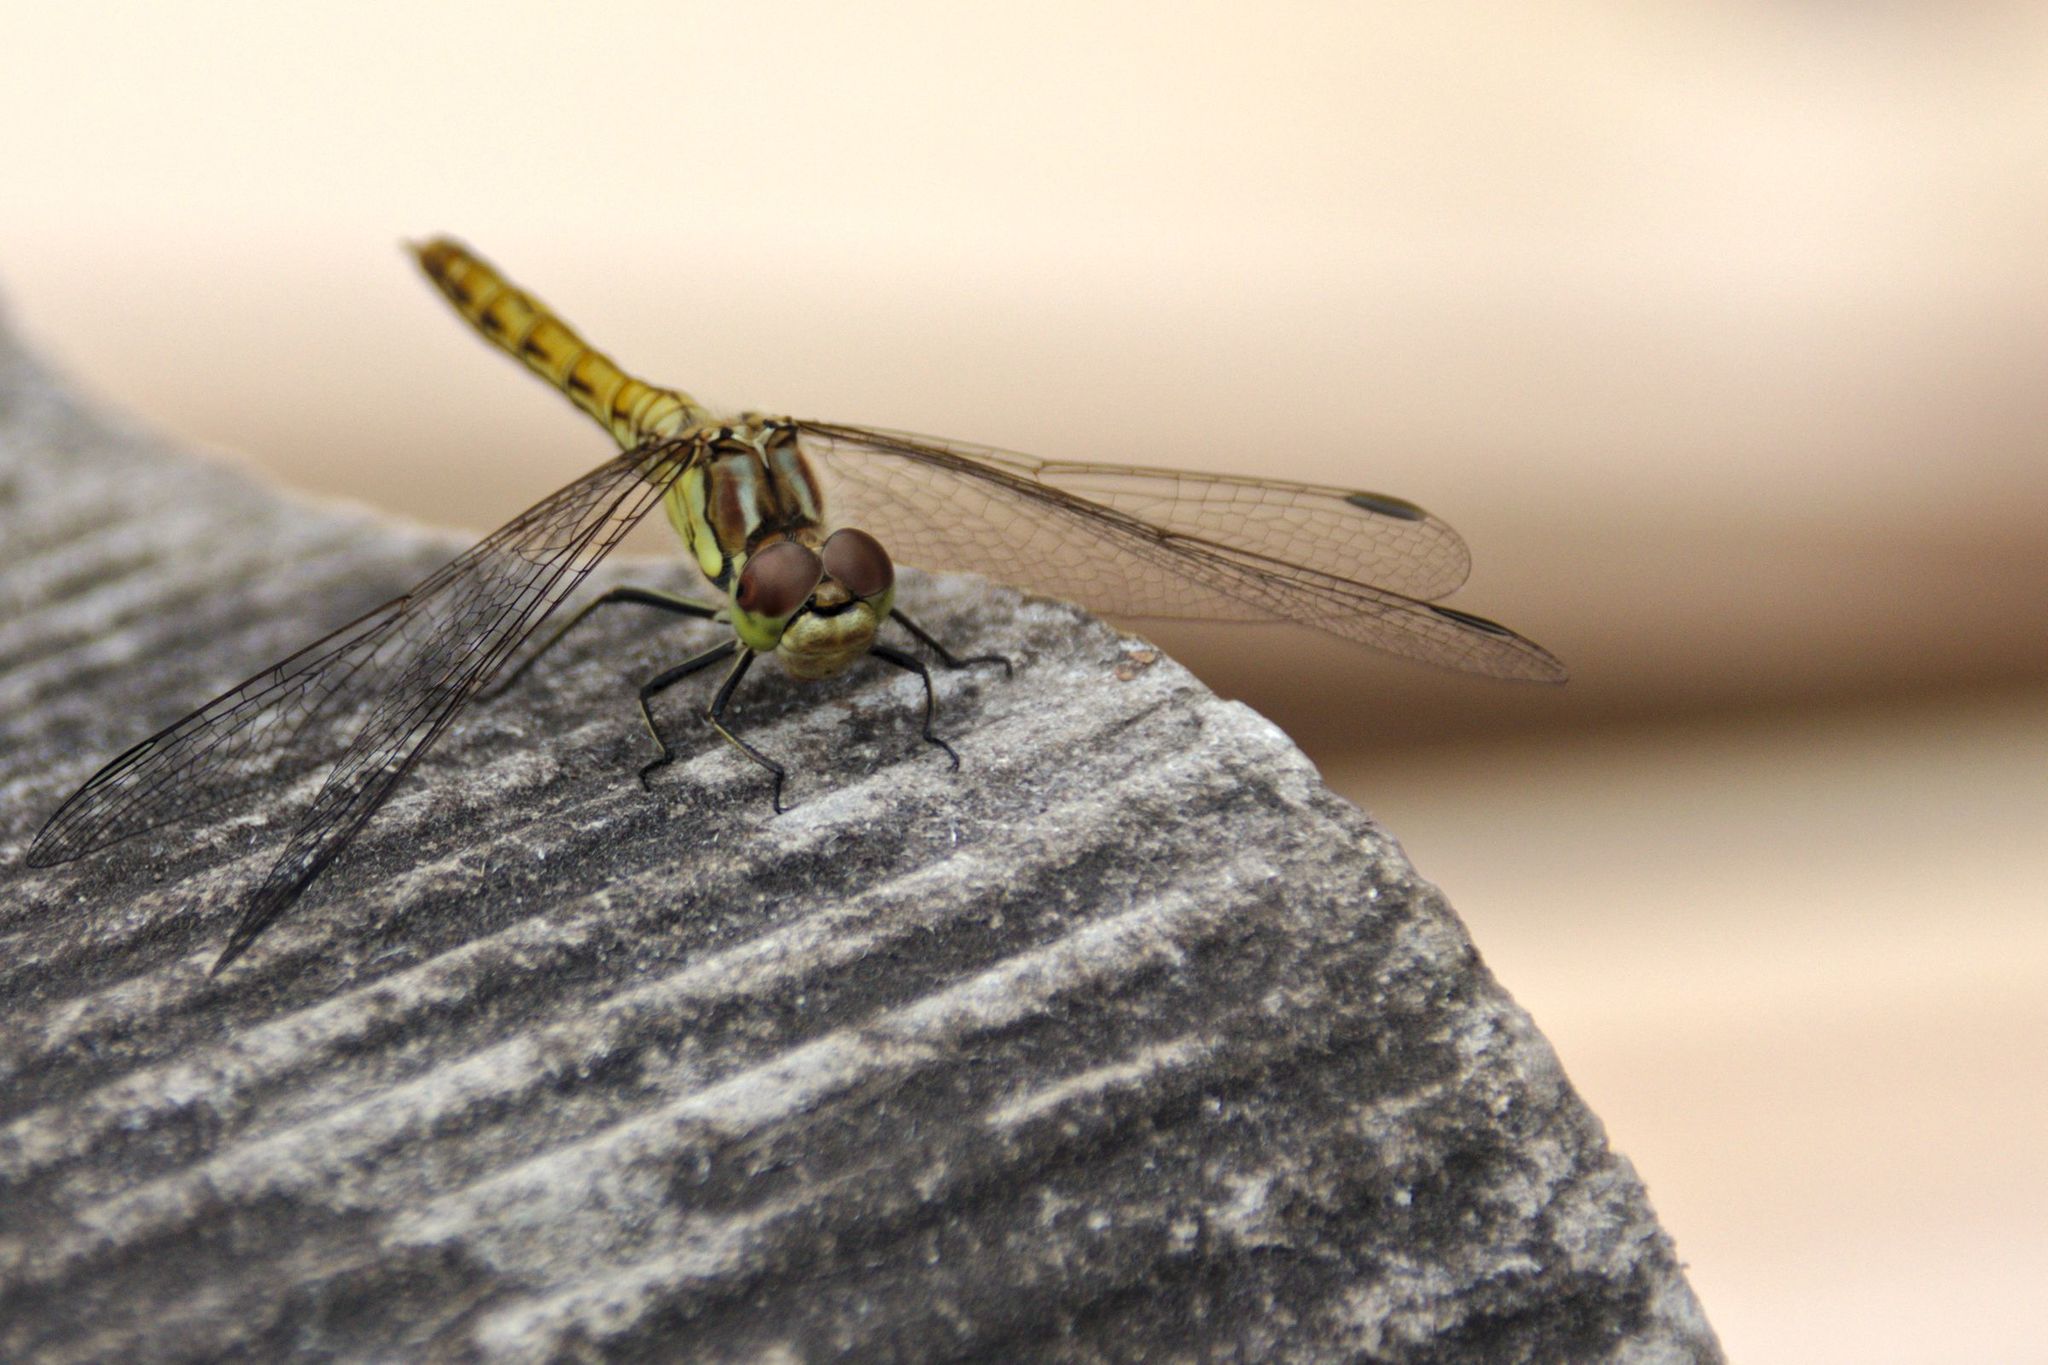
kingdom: Animalia
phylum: Arthropoda
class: Insecta
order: Odonata
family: Libellulidae
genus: Sympetrum
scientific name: Sympetrum vulgatum
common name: Vagrant darter
